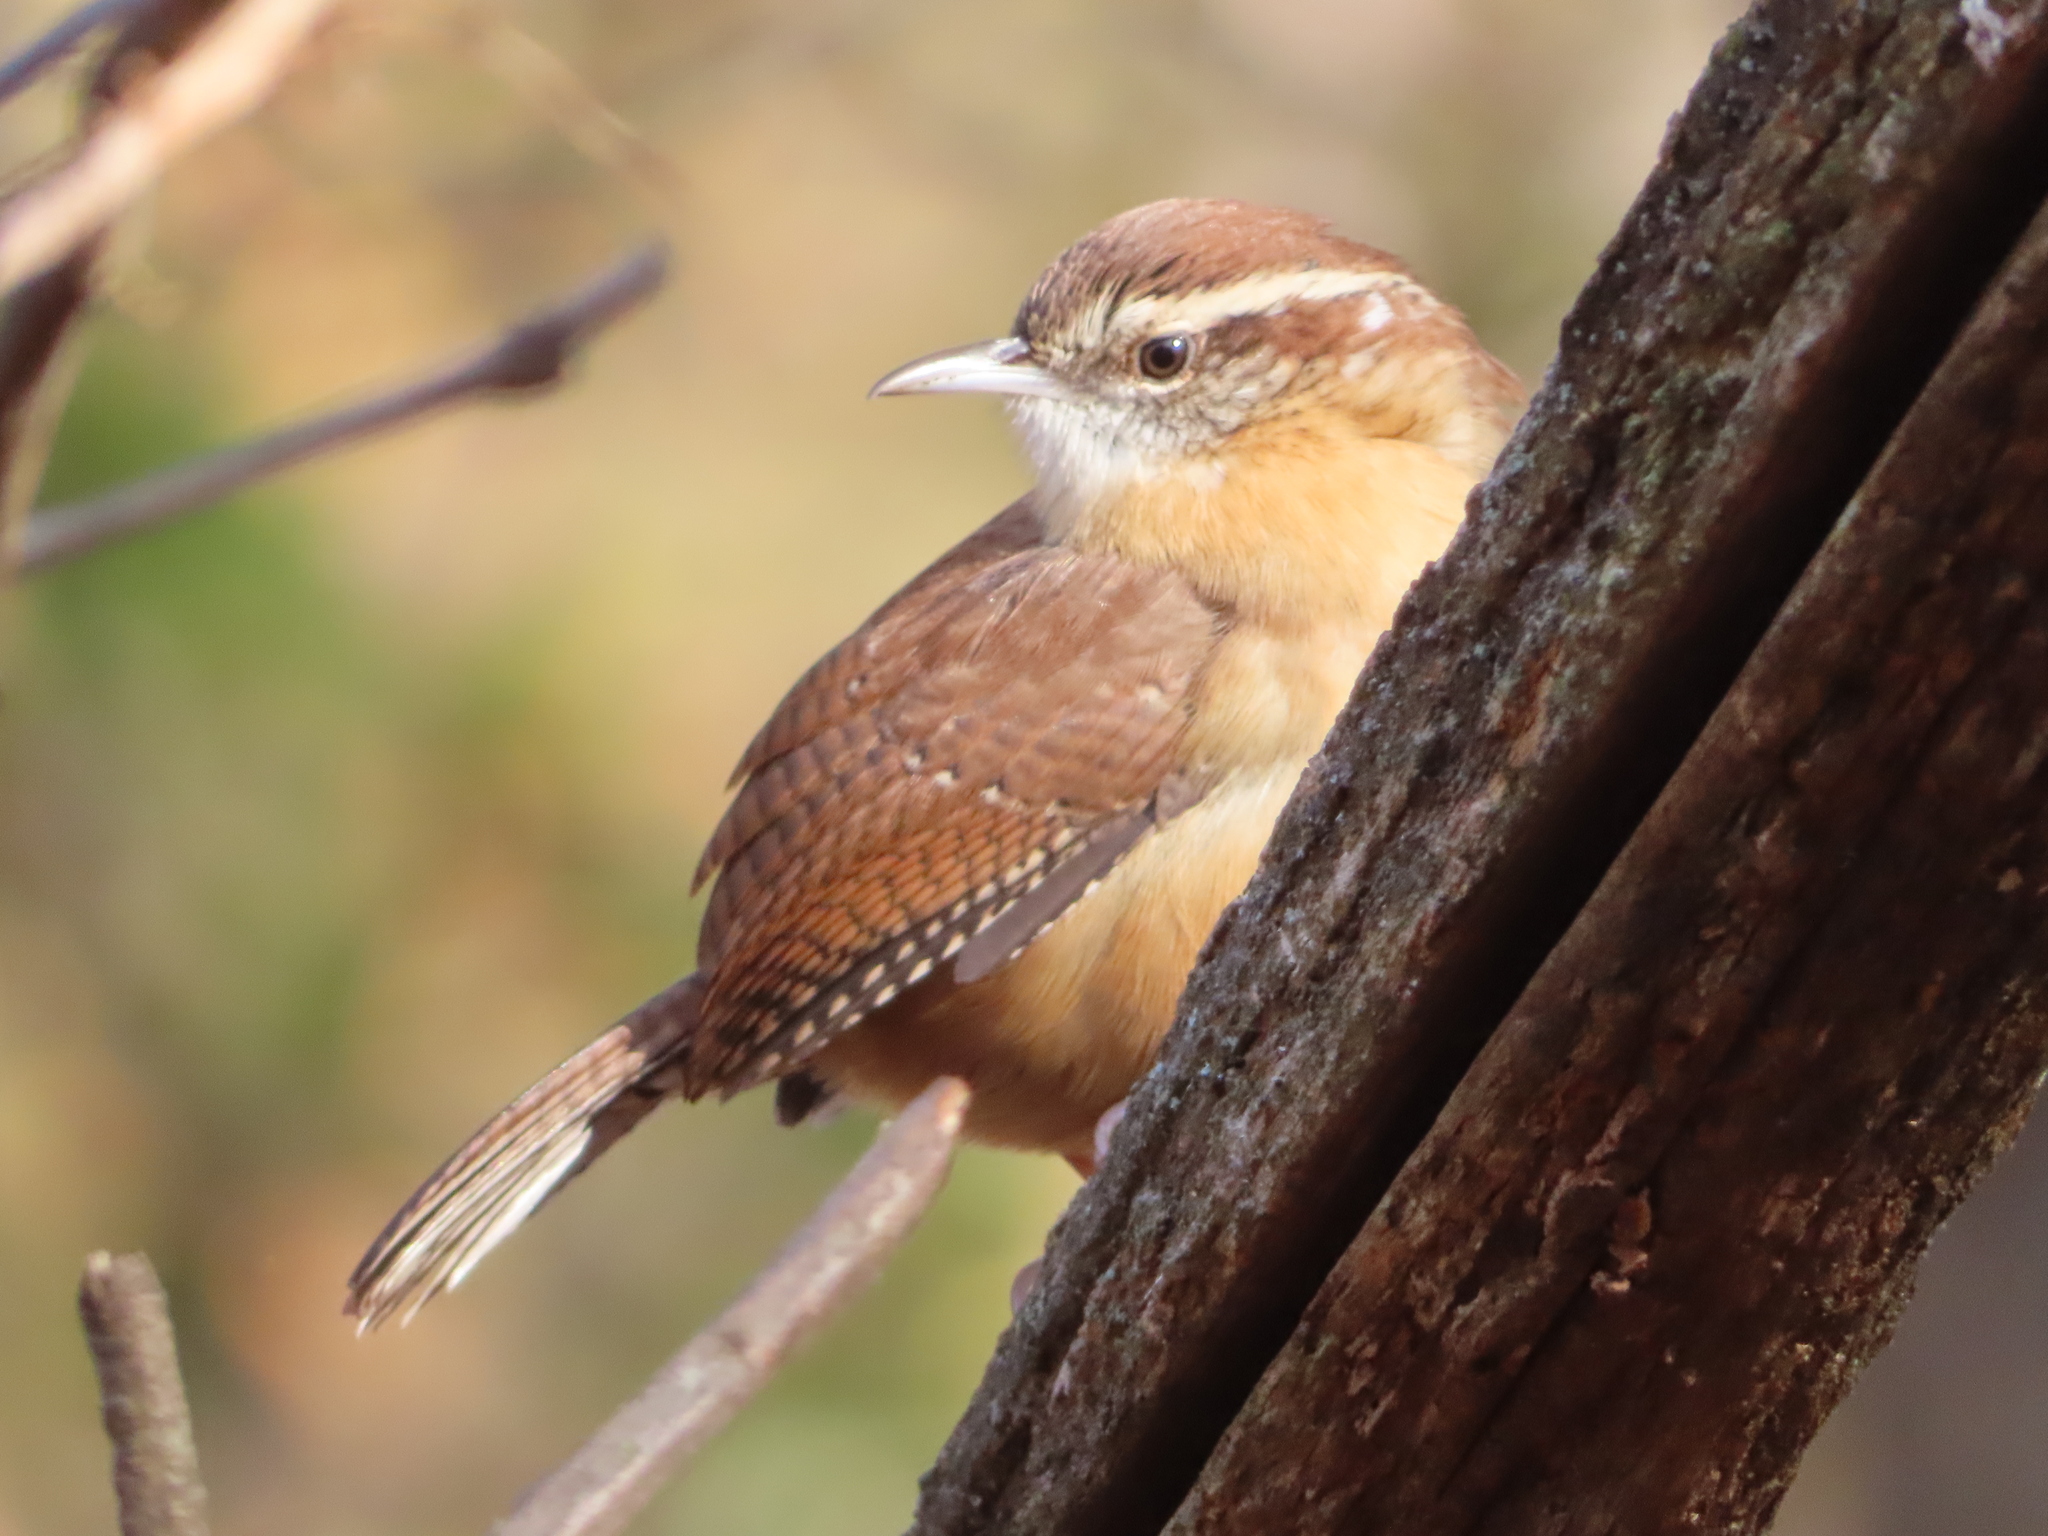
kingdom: Animalia
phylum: Chordata
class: Aves
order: Passeriformes
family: Troglodytidae
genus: Thryothorus
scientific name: Thryothorus ludovicianus
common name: Carolina wren
